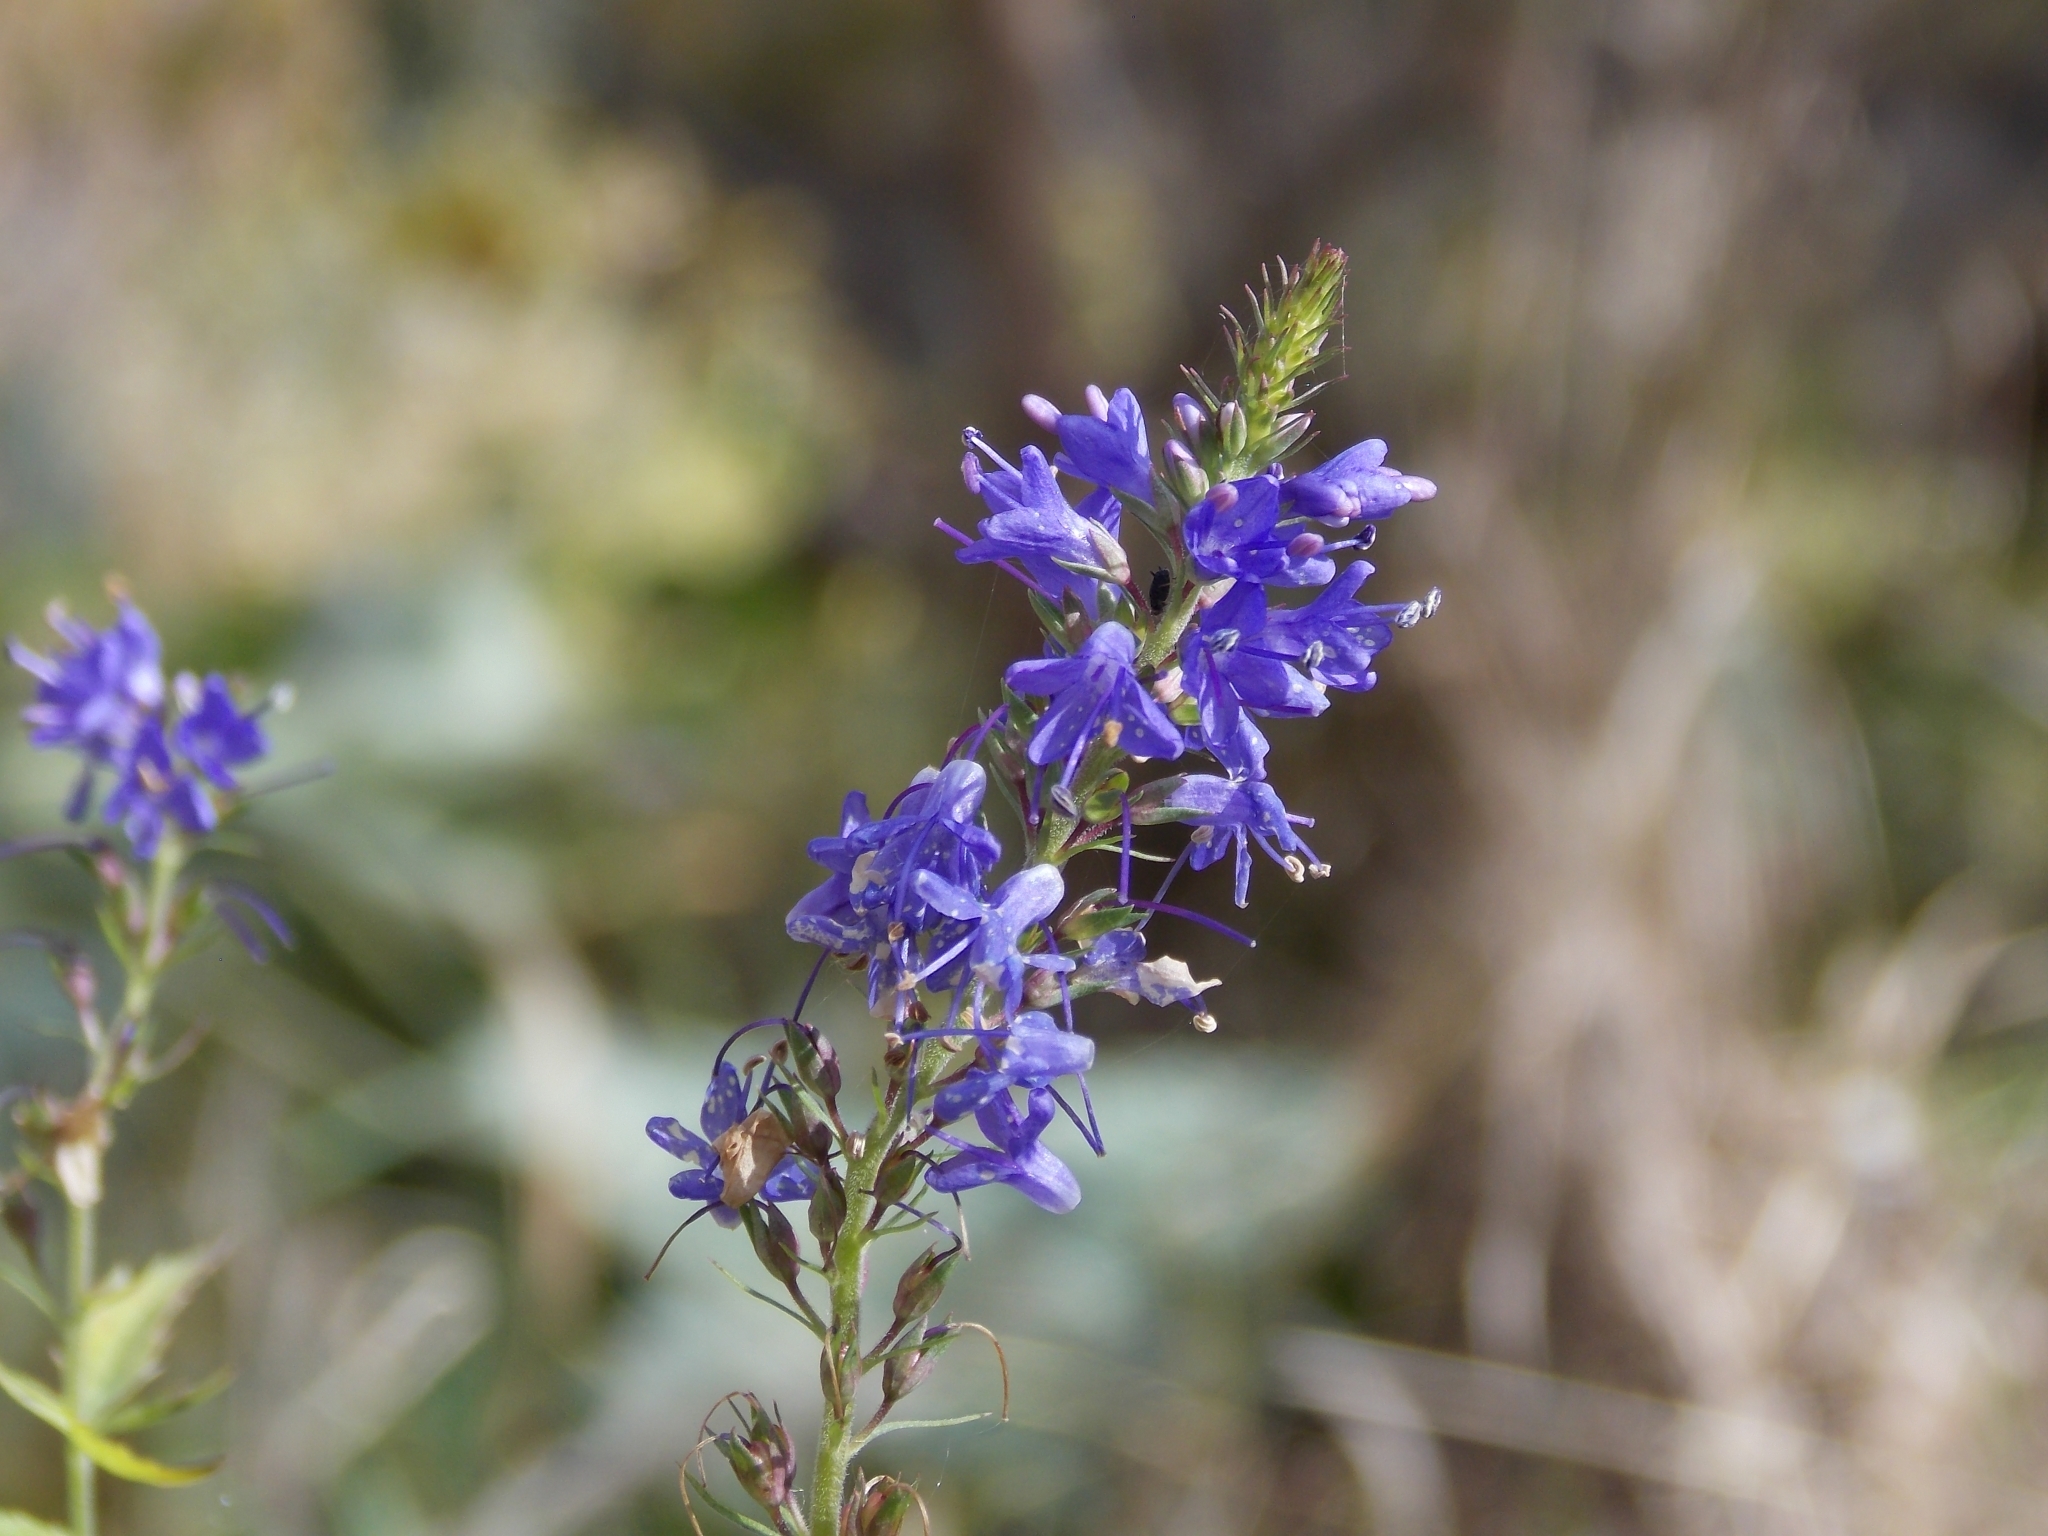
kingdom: Plantae
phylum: Tracheophyta
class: Magnoliopsida
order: Lamiales
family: Plantaginaceae
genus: Veronica
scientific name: Veronica teucrium
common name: Large speedwell
